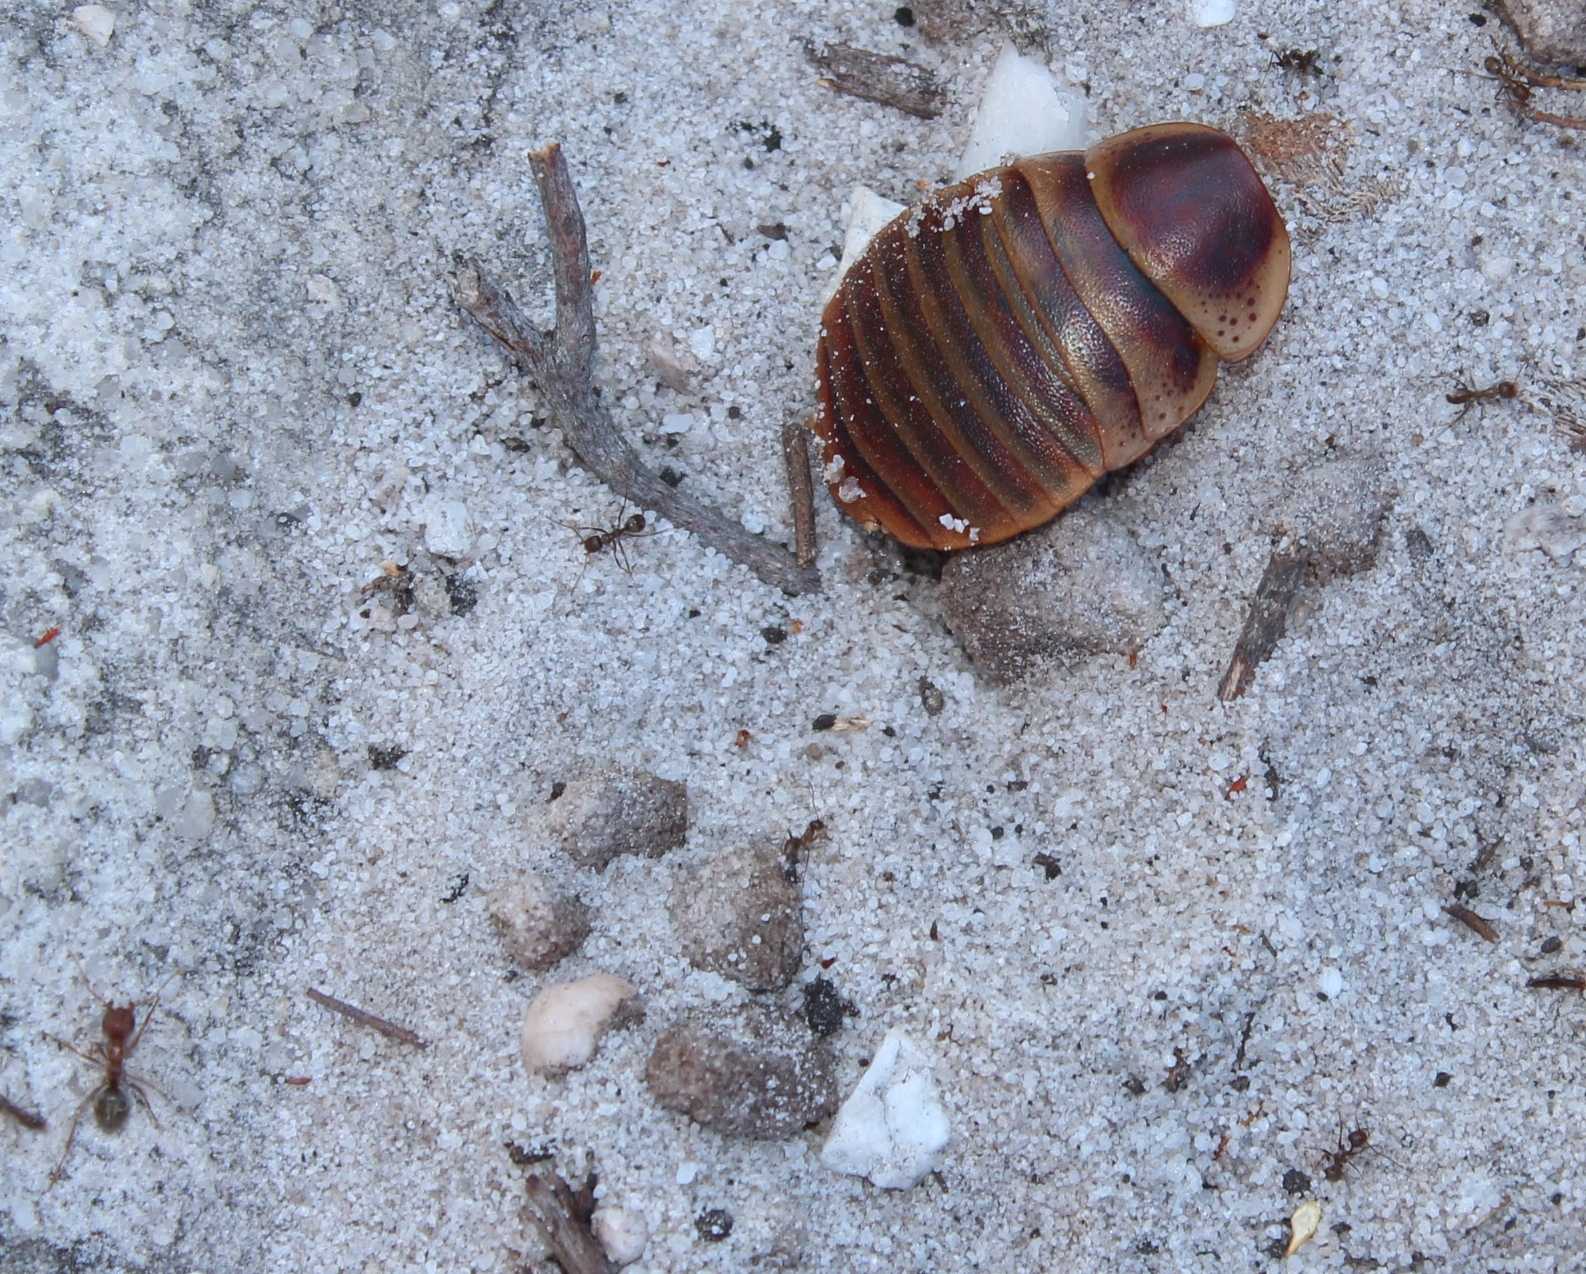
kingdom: Animalia
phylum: Arthropoda
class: Insecta
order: Hymenoptera
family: Formicidae
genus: Anoplolepis
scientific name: Anoplolepis custodiens
